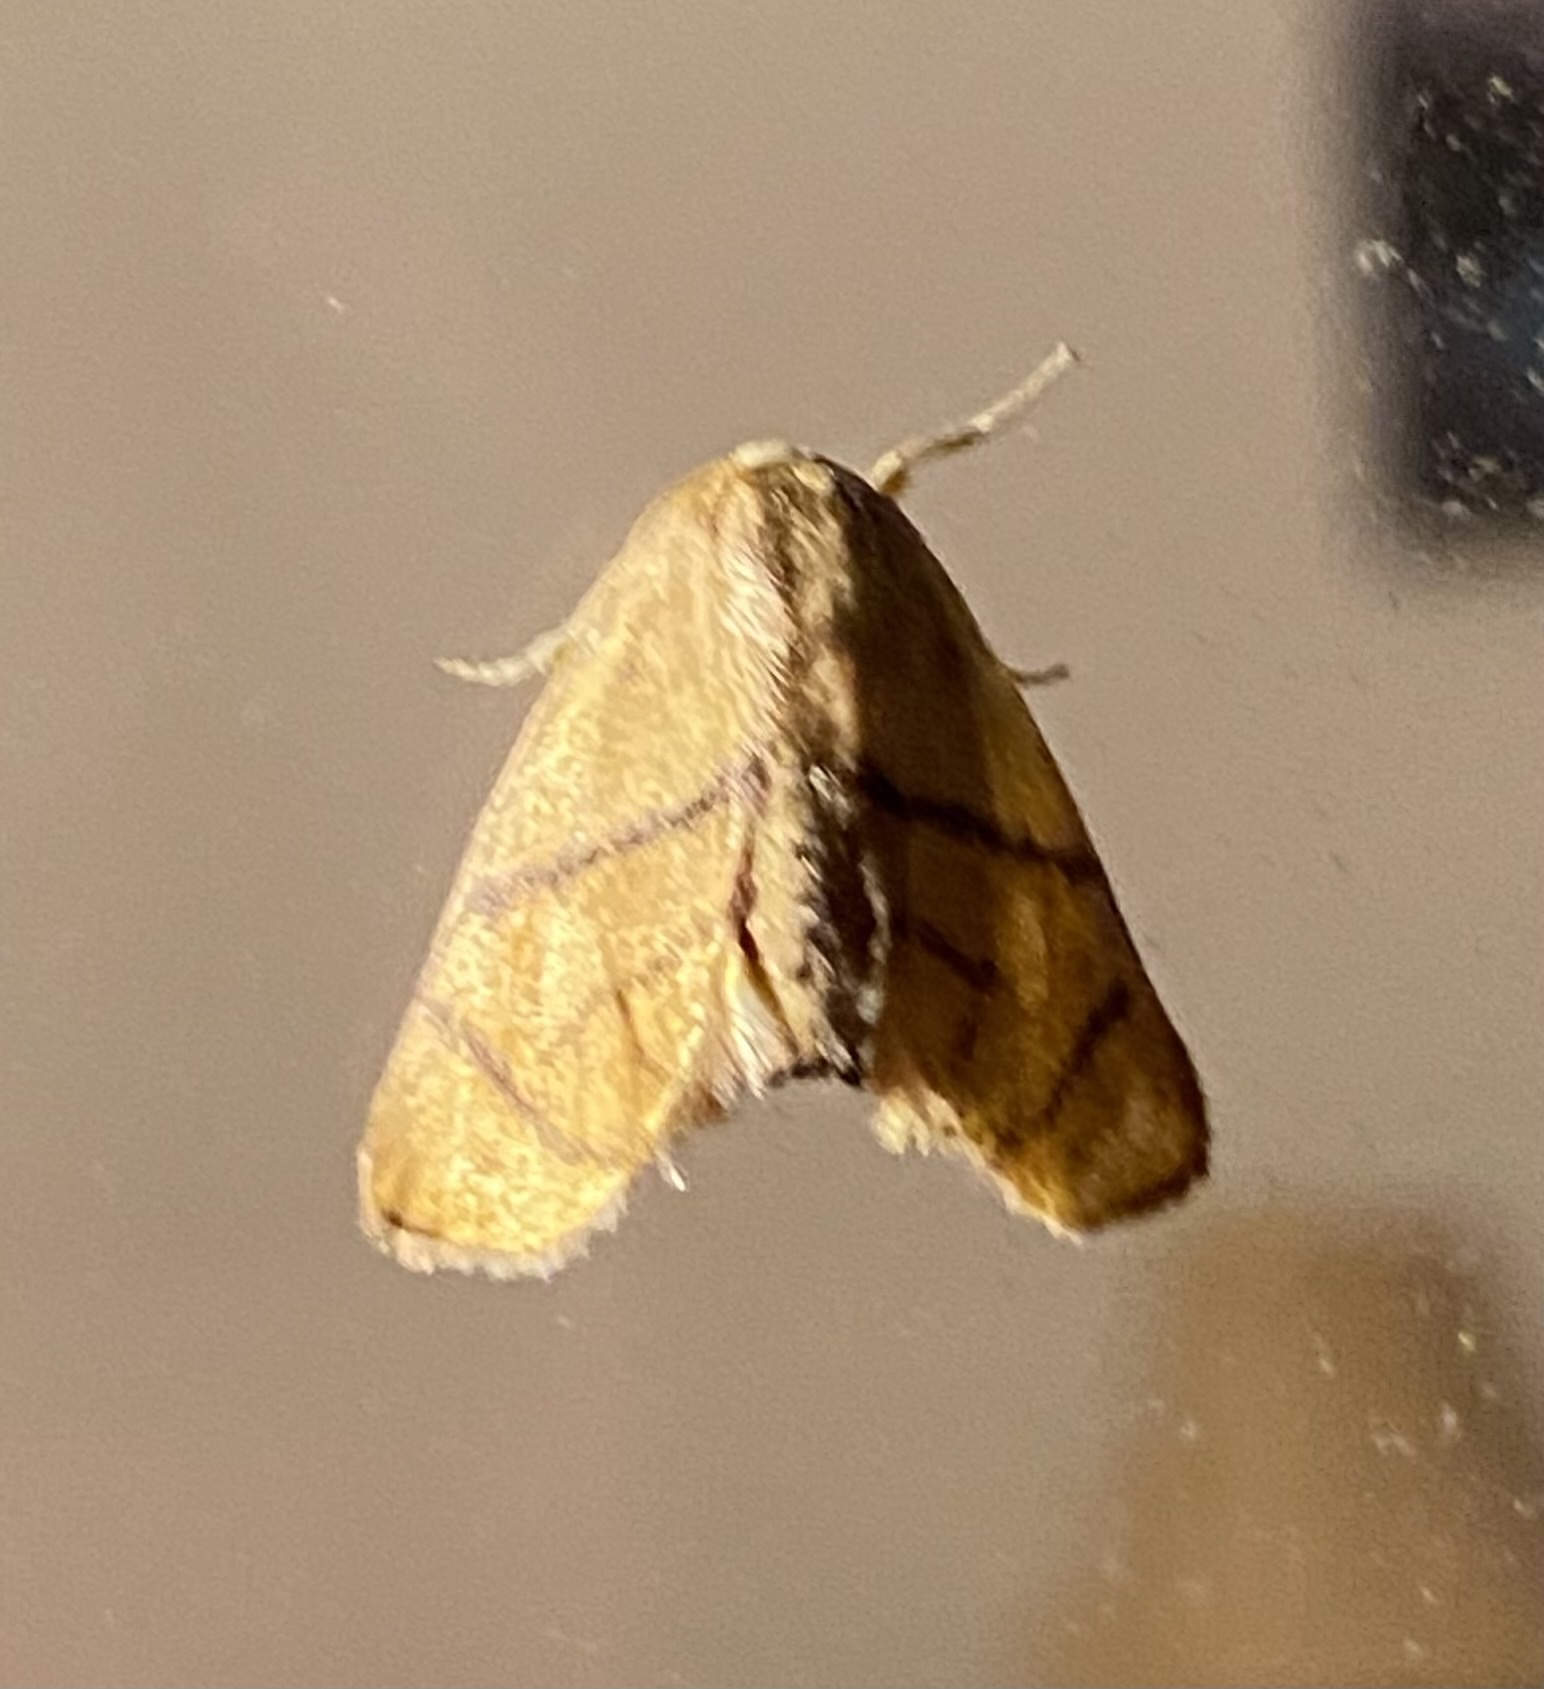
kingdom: Animalia
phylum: Arthropoda
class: Insecta
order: Lepidoptera
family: Limacodidae
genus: Apoda
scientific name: Apoda y-inversa
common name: Yellow-collared slug moth
